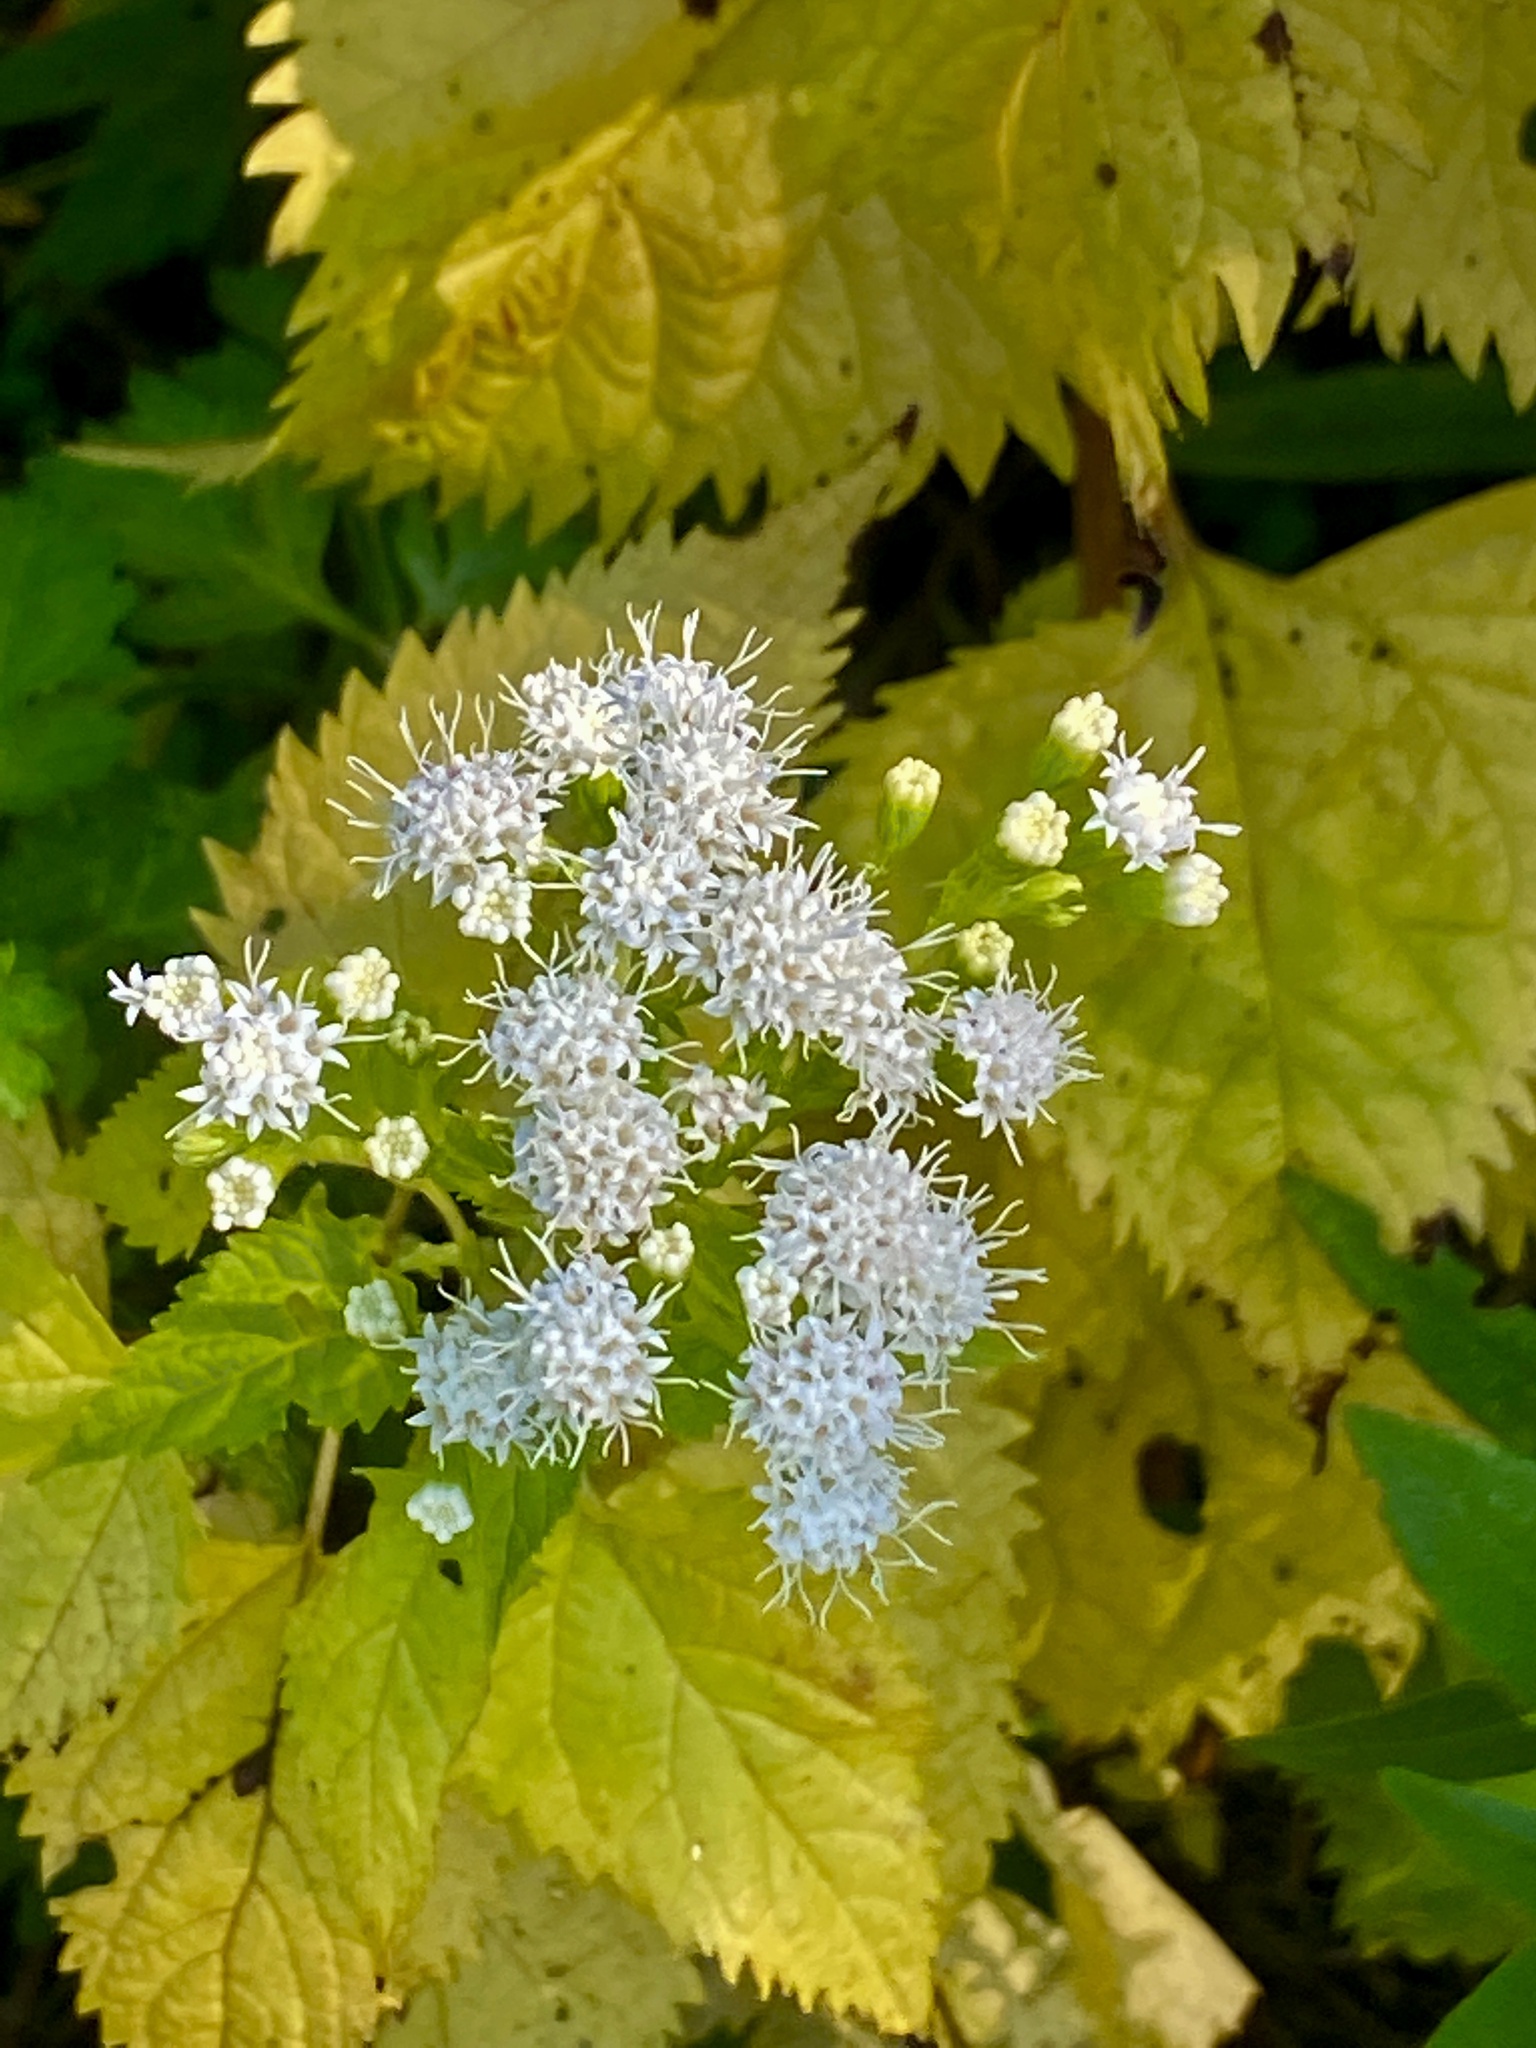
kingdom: Plantae
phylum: Tracheophyta
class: Magnoliopsida
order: Asterales
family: Asteraceae
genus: Ageratina
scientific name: Ageratina altissima
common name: White snakeroot
